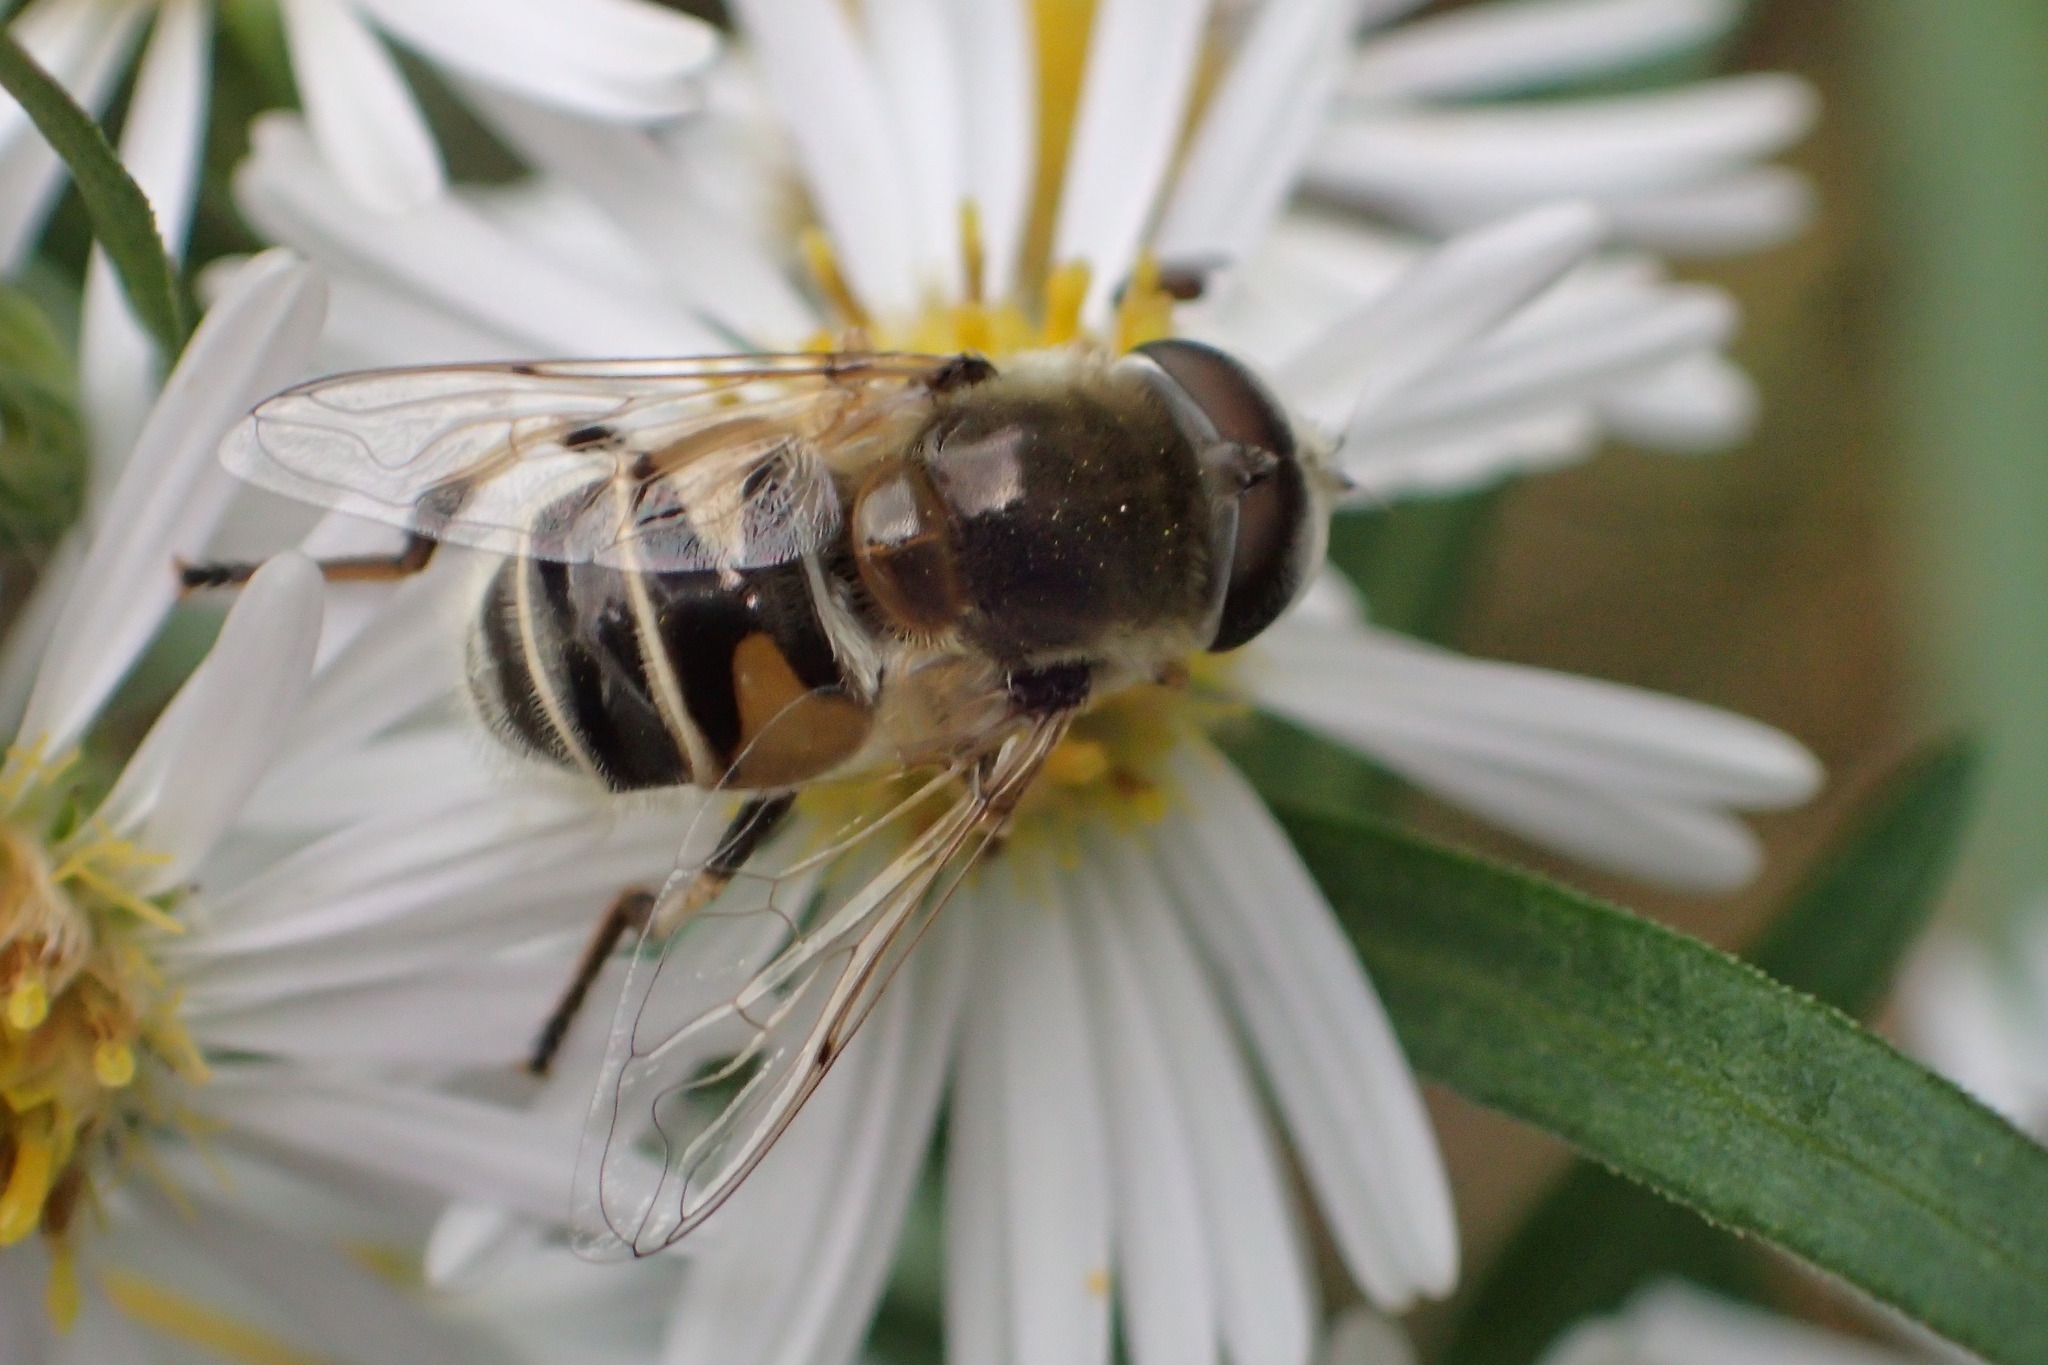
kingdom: Animalia
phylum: Arthropoda
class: Insecta
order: Diptera
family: Syrphidae
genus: Eristalis
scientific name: Eristalis stipator
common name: Yellow-shouldered drone fly
